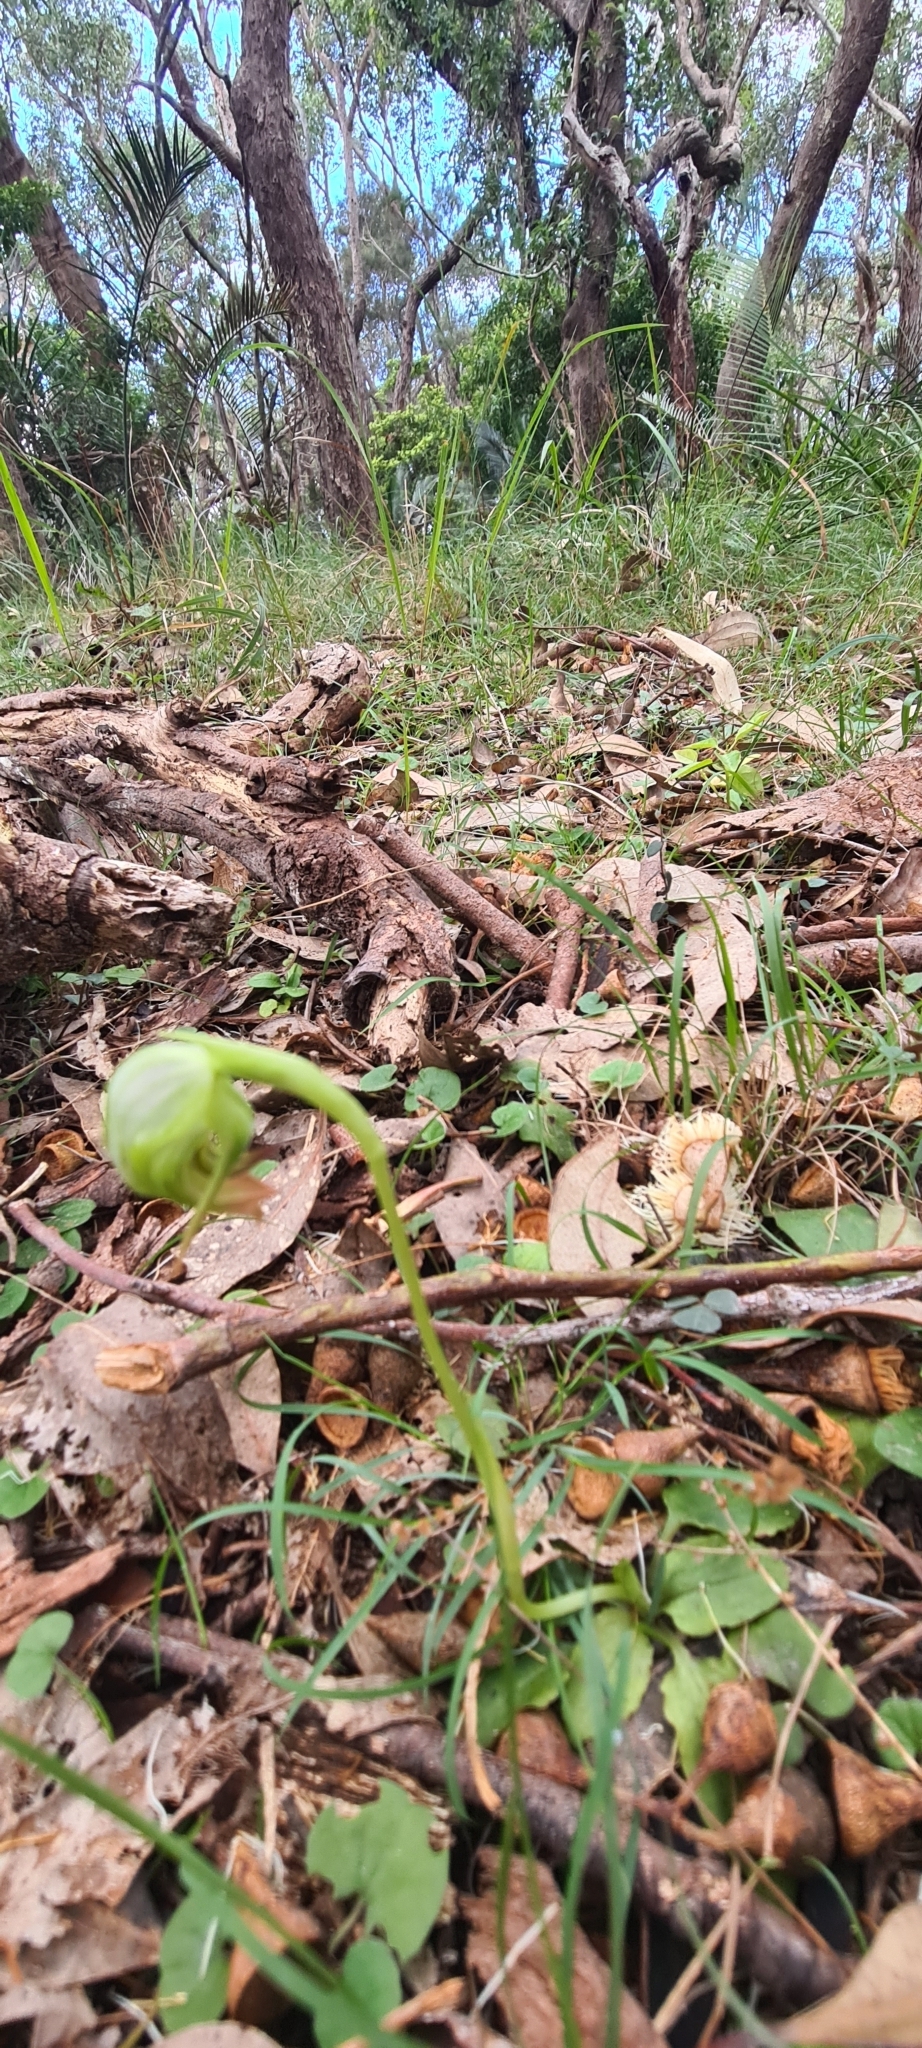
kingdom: Plantae
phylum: Tracheophyta
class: Liliopsida
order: Asparagales
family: Orchidaceae
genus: Pterostylis
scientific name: Pterostylis nutans
